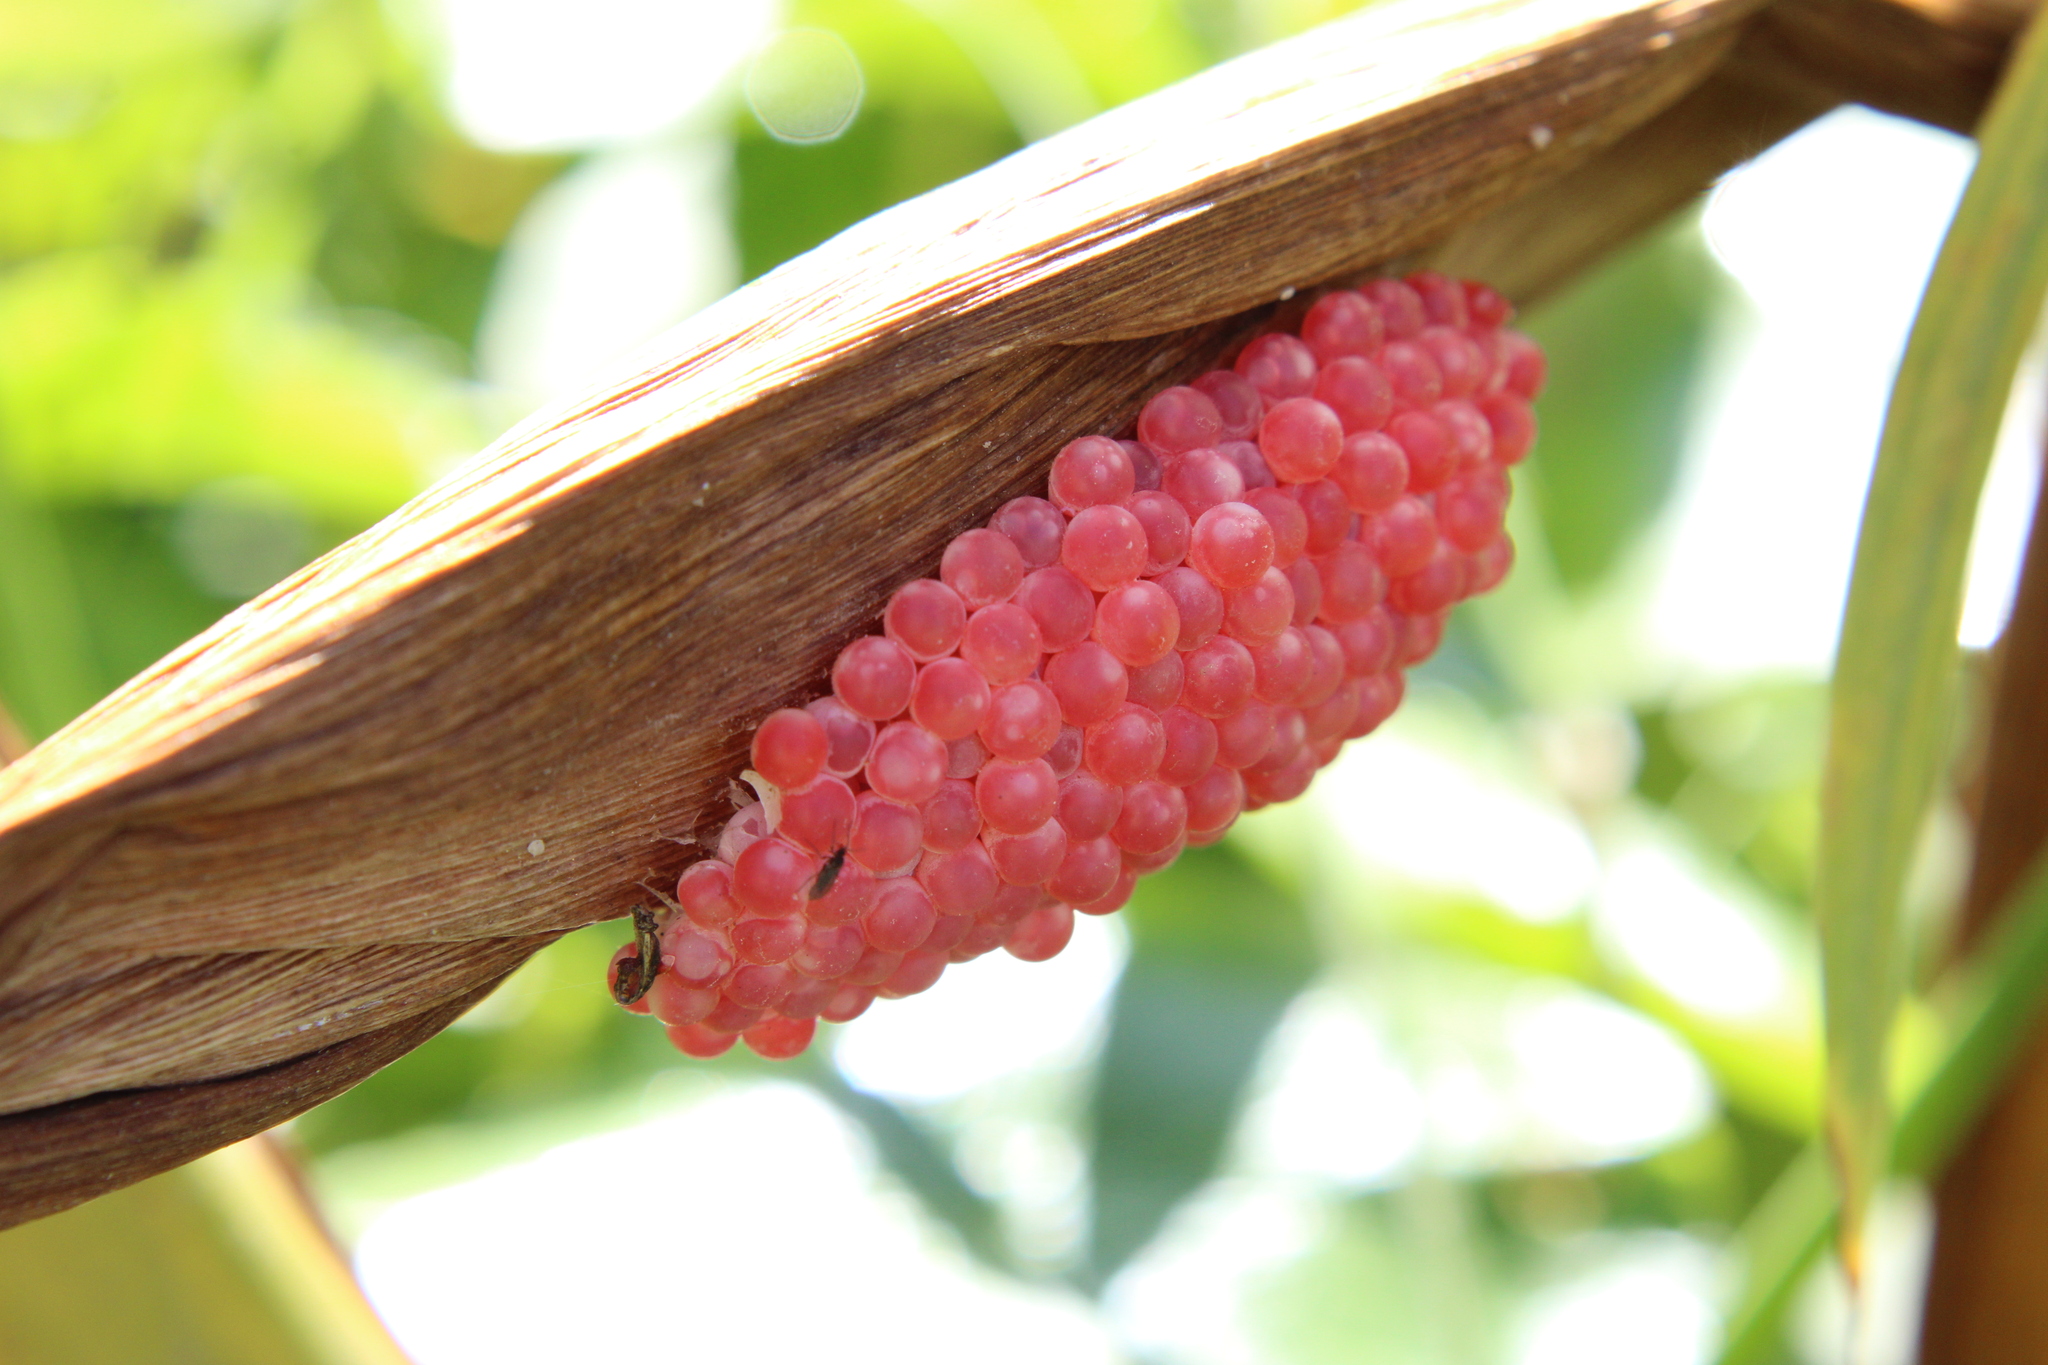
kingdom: Animalia
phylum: Mollusca
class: Gastropoda
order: Architaenioglossa
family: Ampullariidae
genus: Pomacea
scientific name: Pomacea canaliculata
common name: Channeled applesnail
